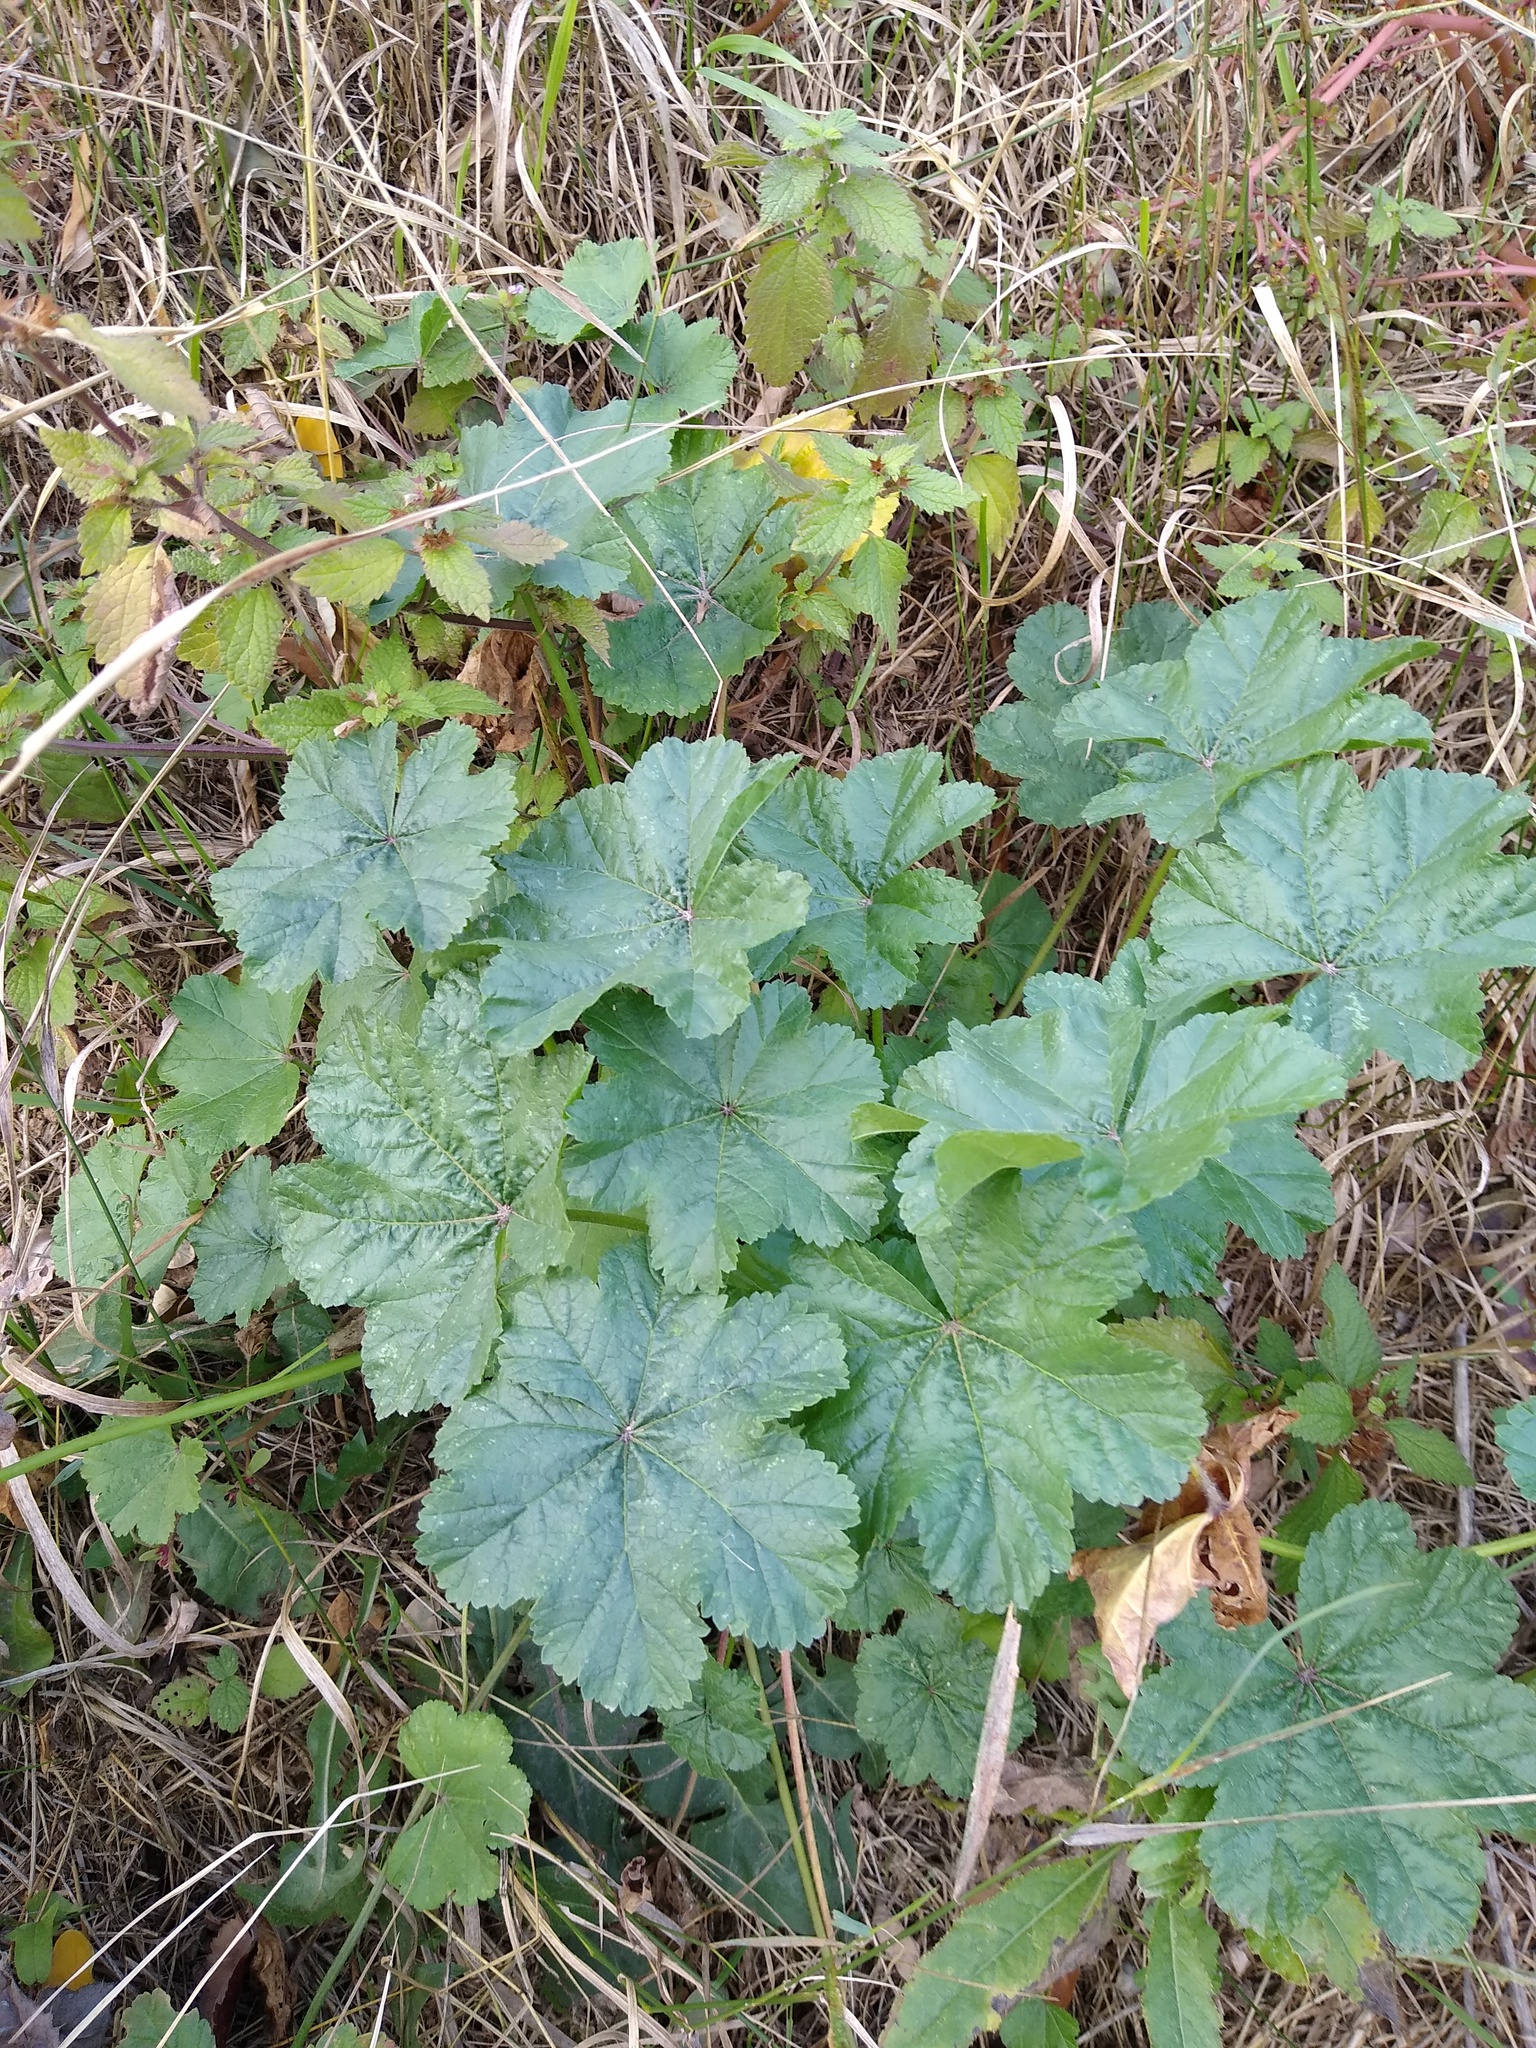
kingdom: Plantae
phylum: Tracheophyta
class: Magnoliopsida
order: Malvales
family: Malvaceae
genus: Malva
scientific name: Malva sylvestris
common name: Common mallow
